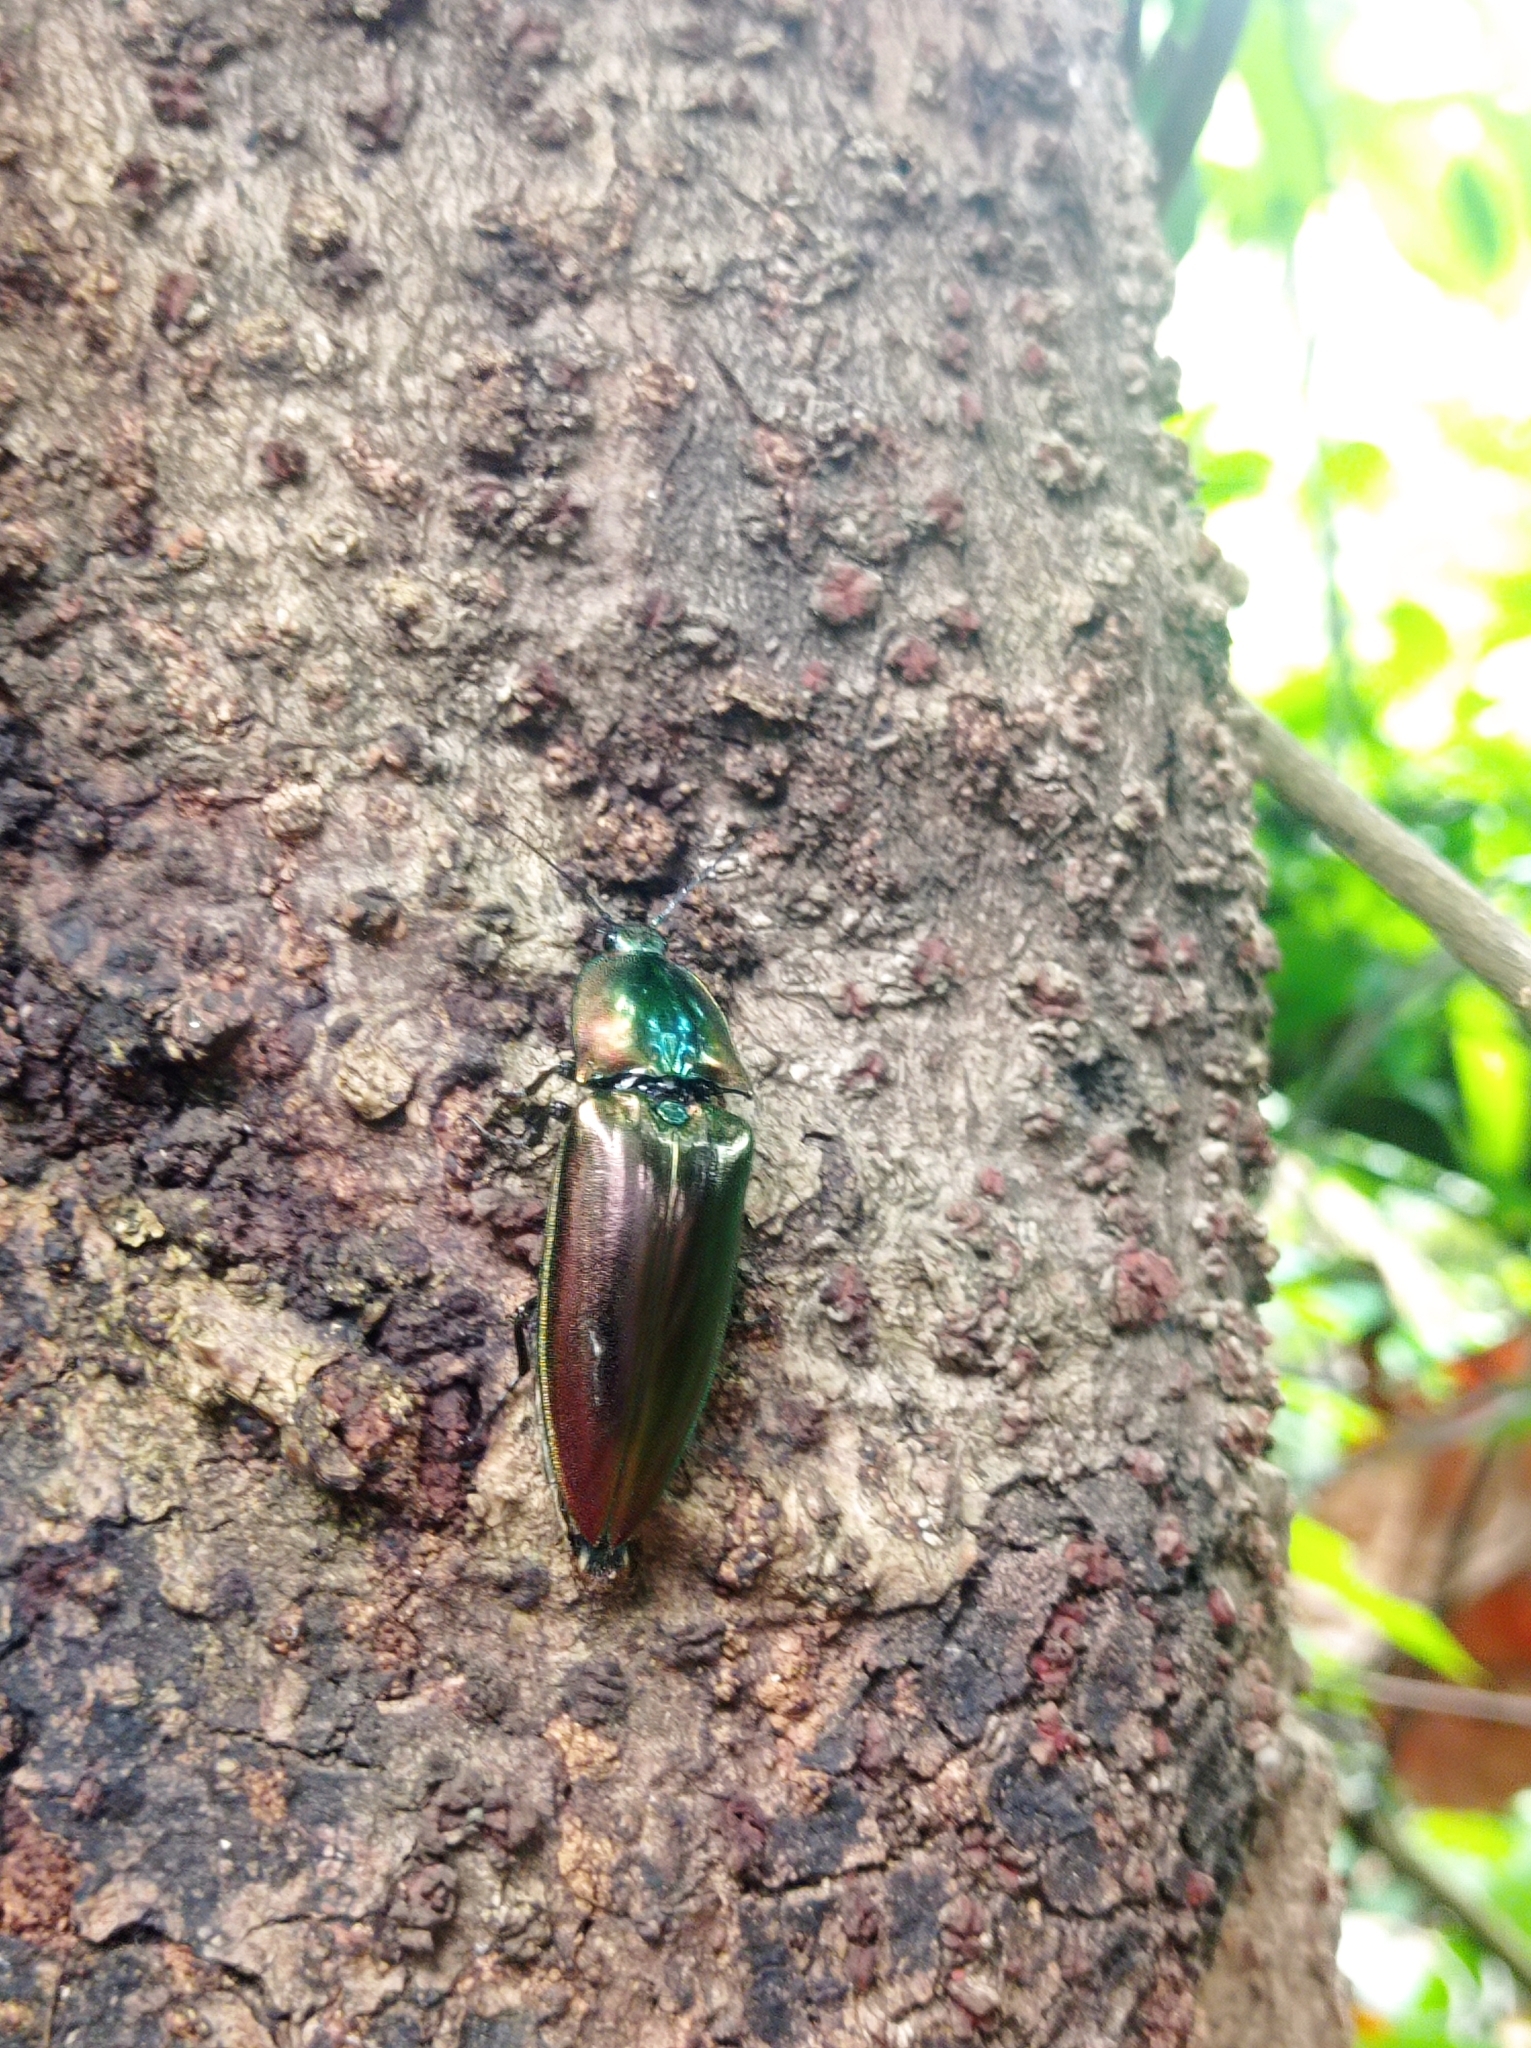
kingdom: Animalia
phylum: Arthropoda
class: Insecta
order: Coleoptera
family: Elateridae
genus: Campsosternus
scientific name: Campsosternus auratus
